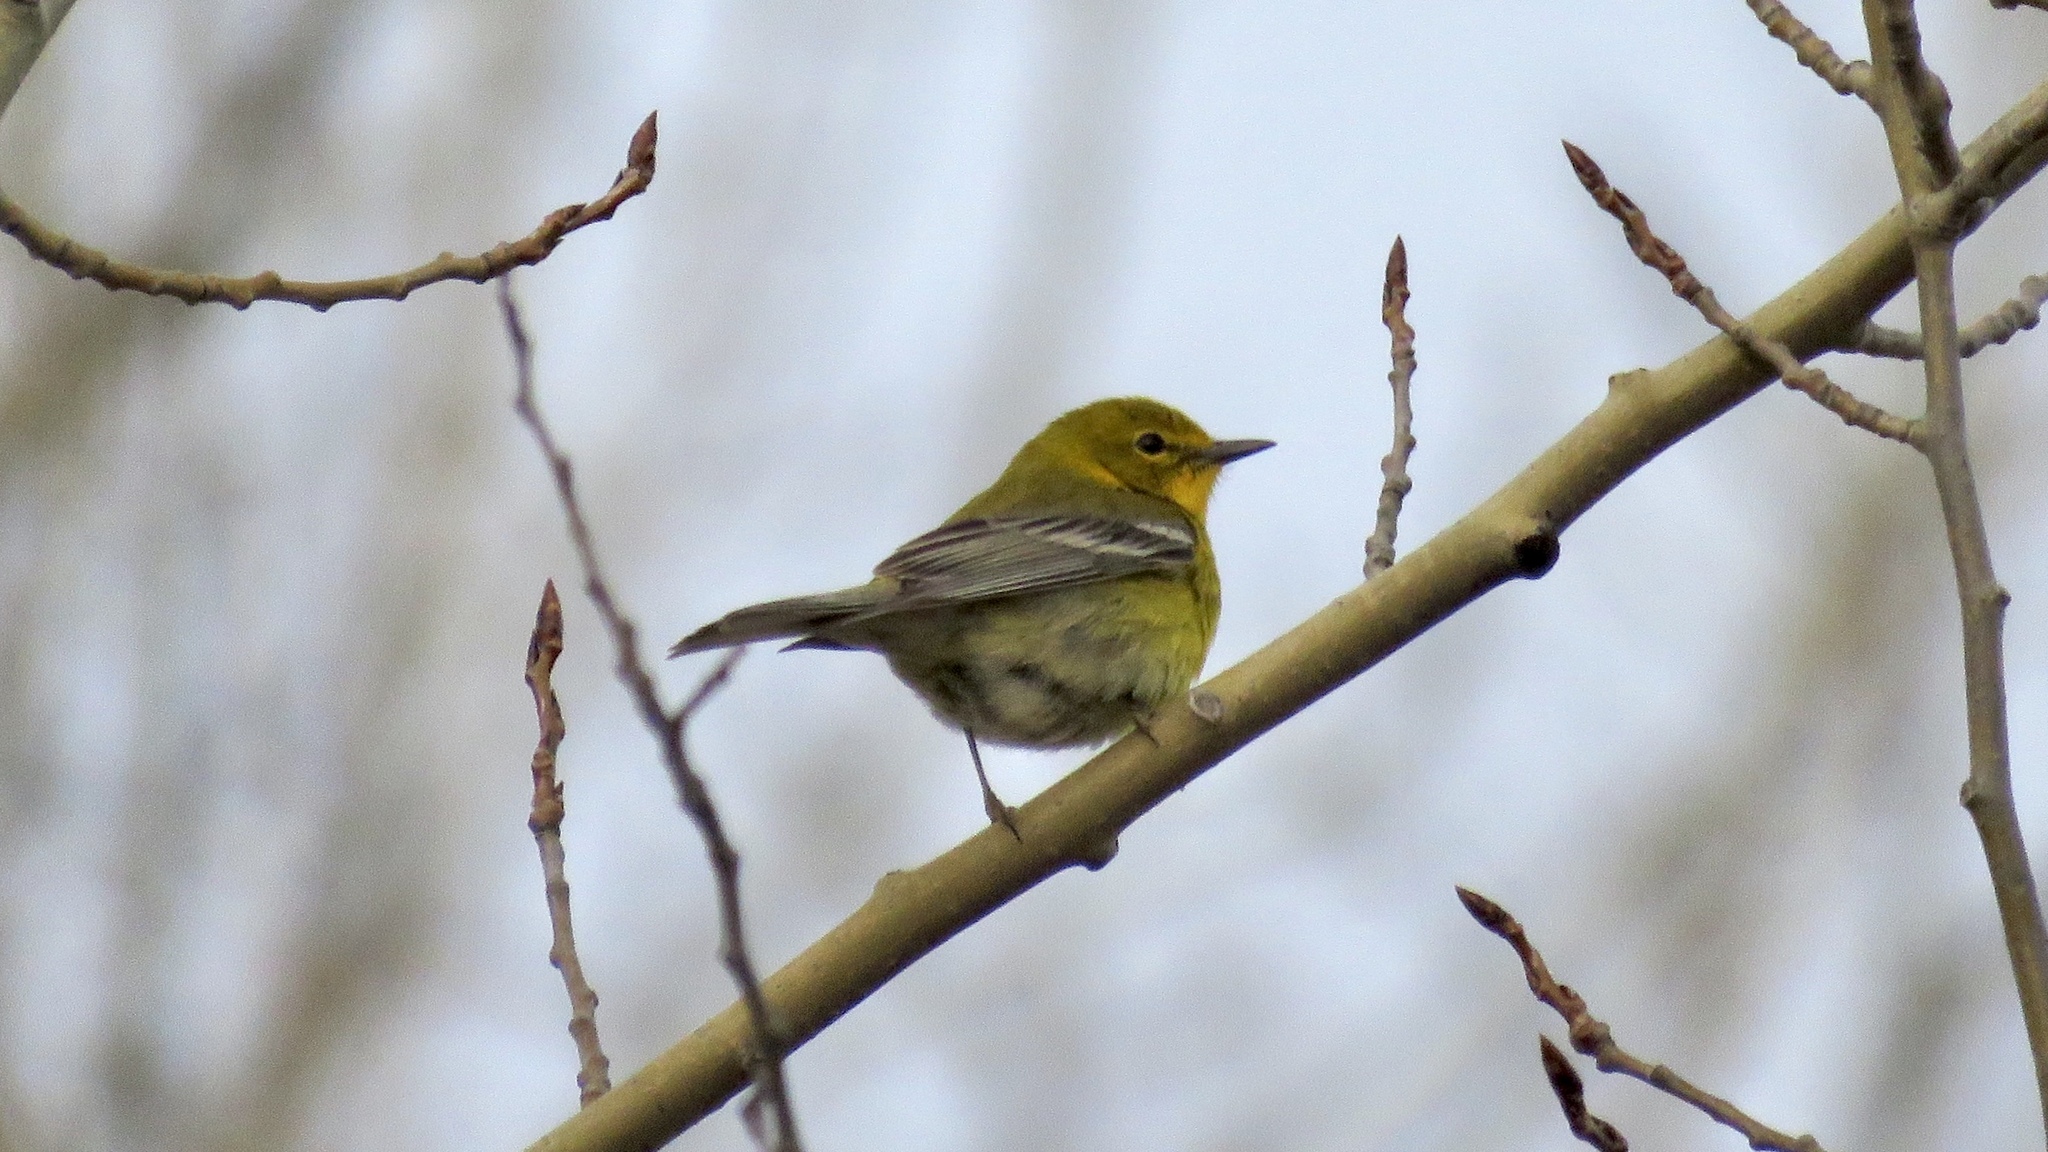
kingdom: Animalia
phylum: Chordata
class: Aves
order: Passeriformes
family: Parulidae
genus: Setophaga
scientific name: Setophaga pinus
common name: Pine warbler
